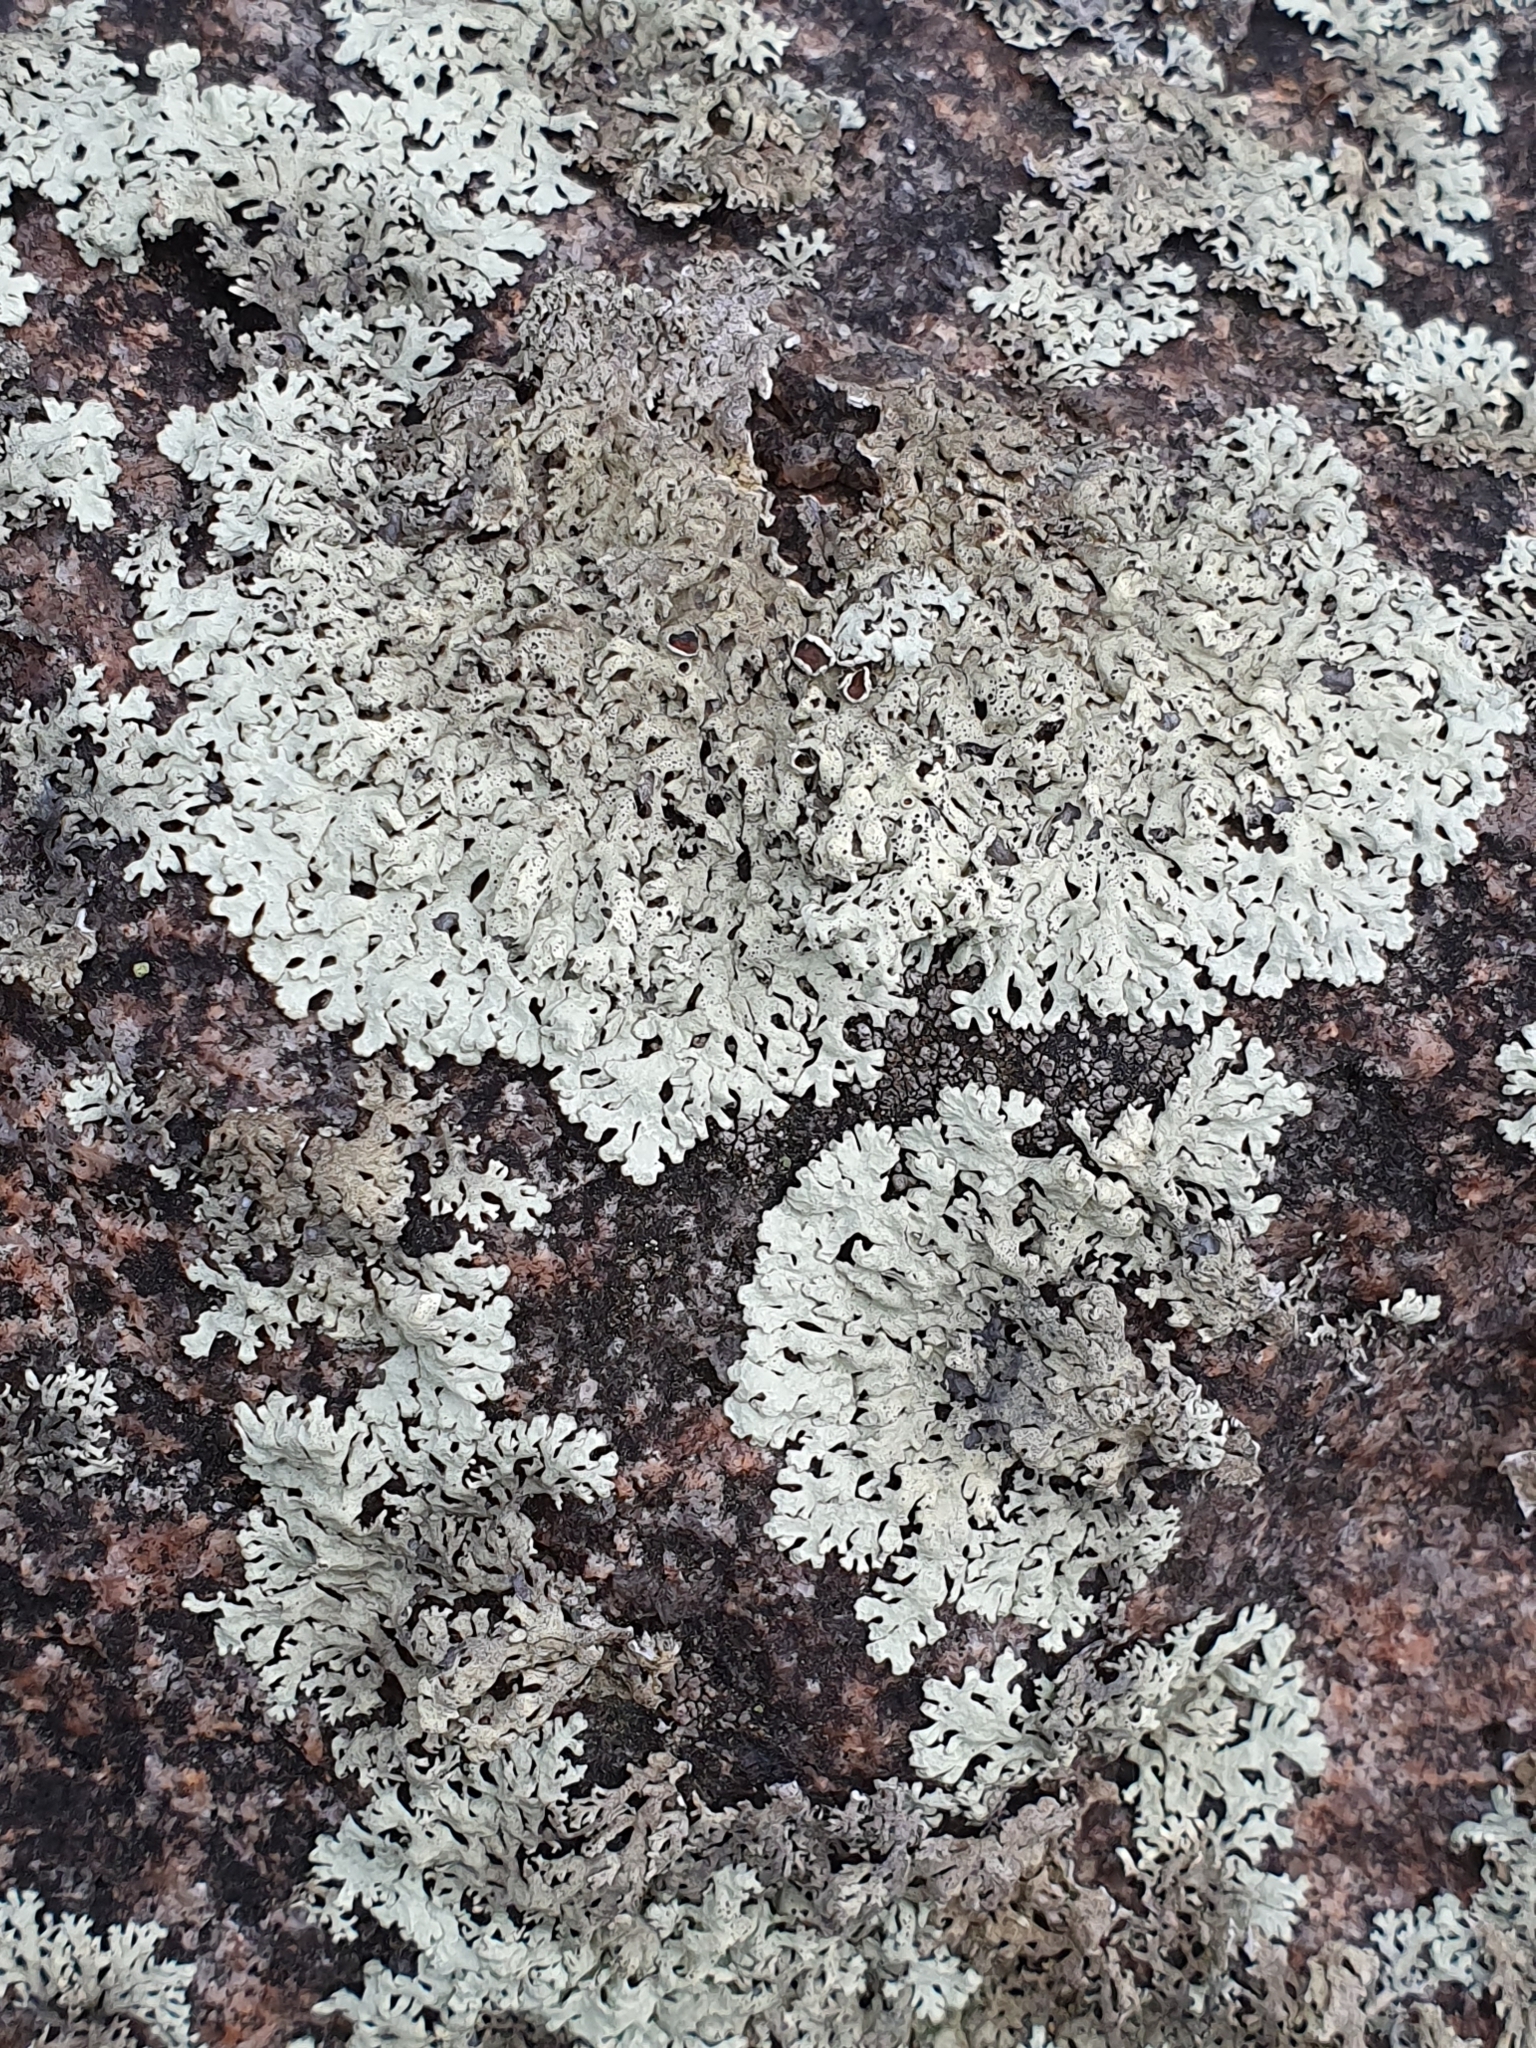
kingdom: Fungi
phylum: Ascomycota
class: Lecanoromycetes
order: Lecanorales
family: Parmeliaceae
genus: Arctoparmelia
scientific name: Arctoparmelia centrifuga
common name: Concentric ring lichen
